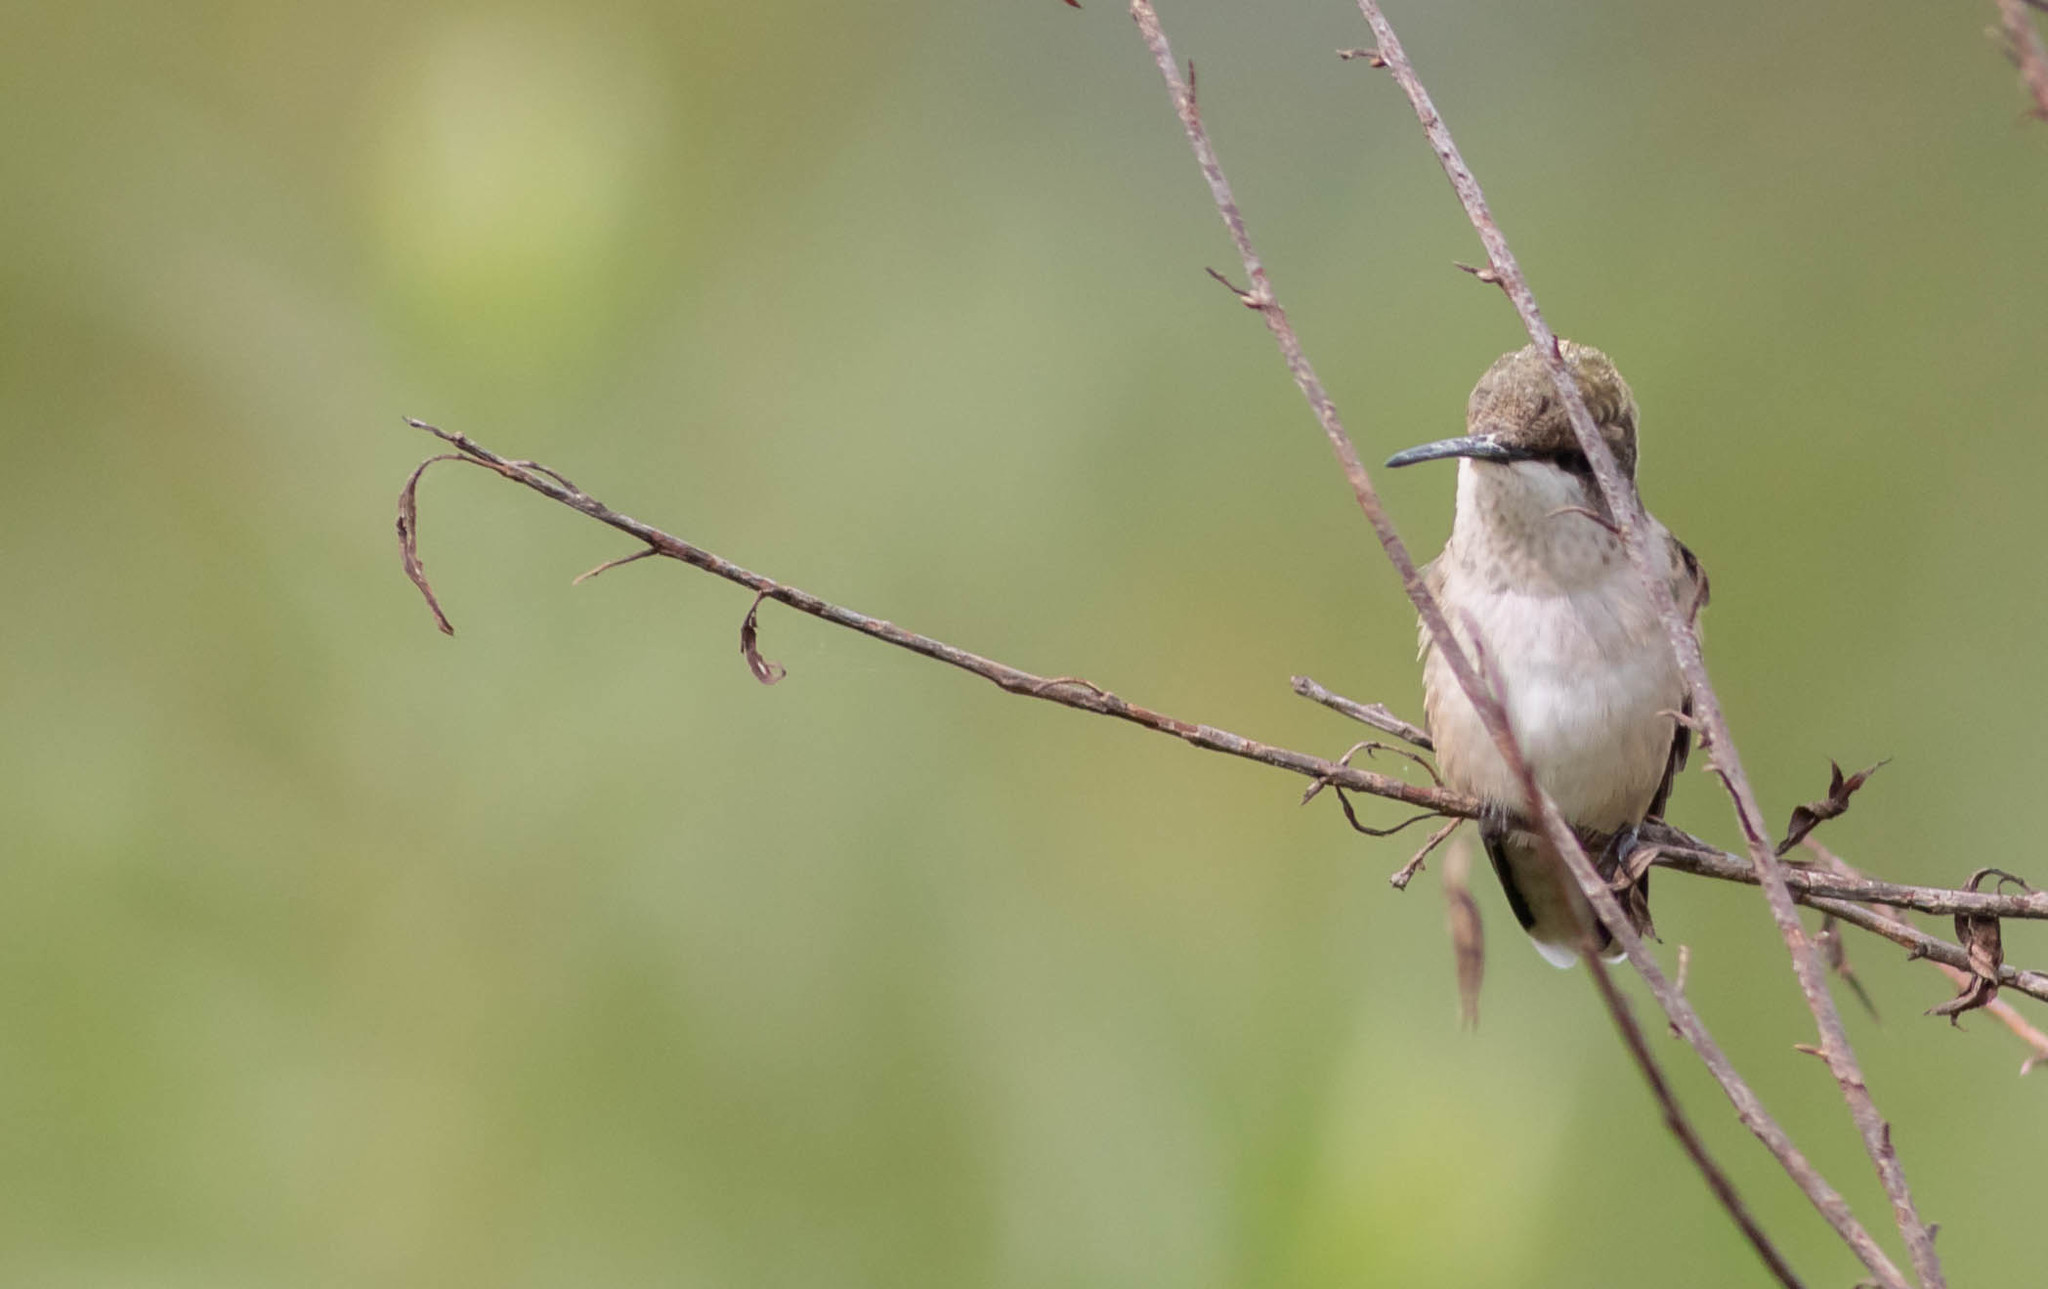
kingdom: Animalia
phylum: Chordata
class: Aves
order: Apodiformes
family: Trochilidae
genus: Archilochus
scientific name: Archilochus colubris
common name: Ruby-throated hummingbird
